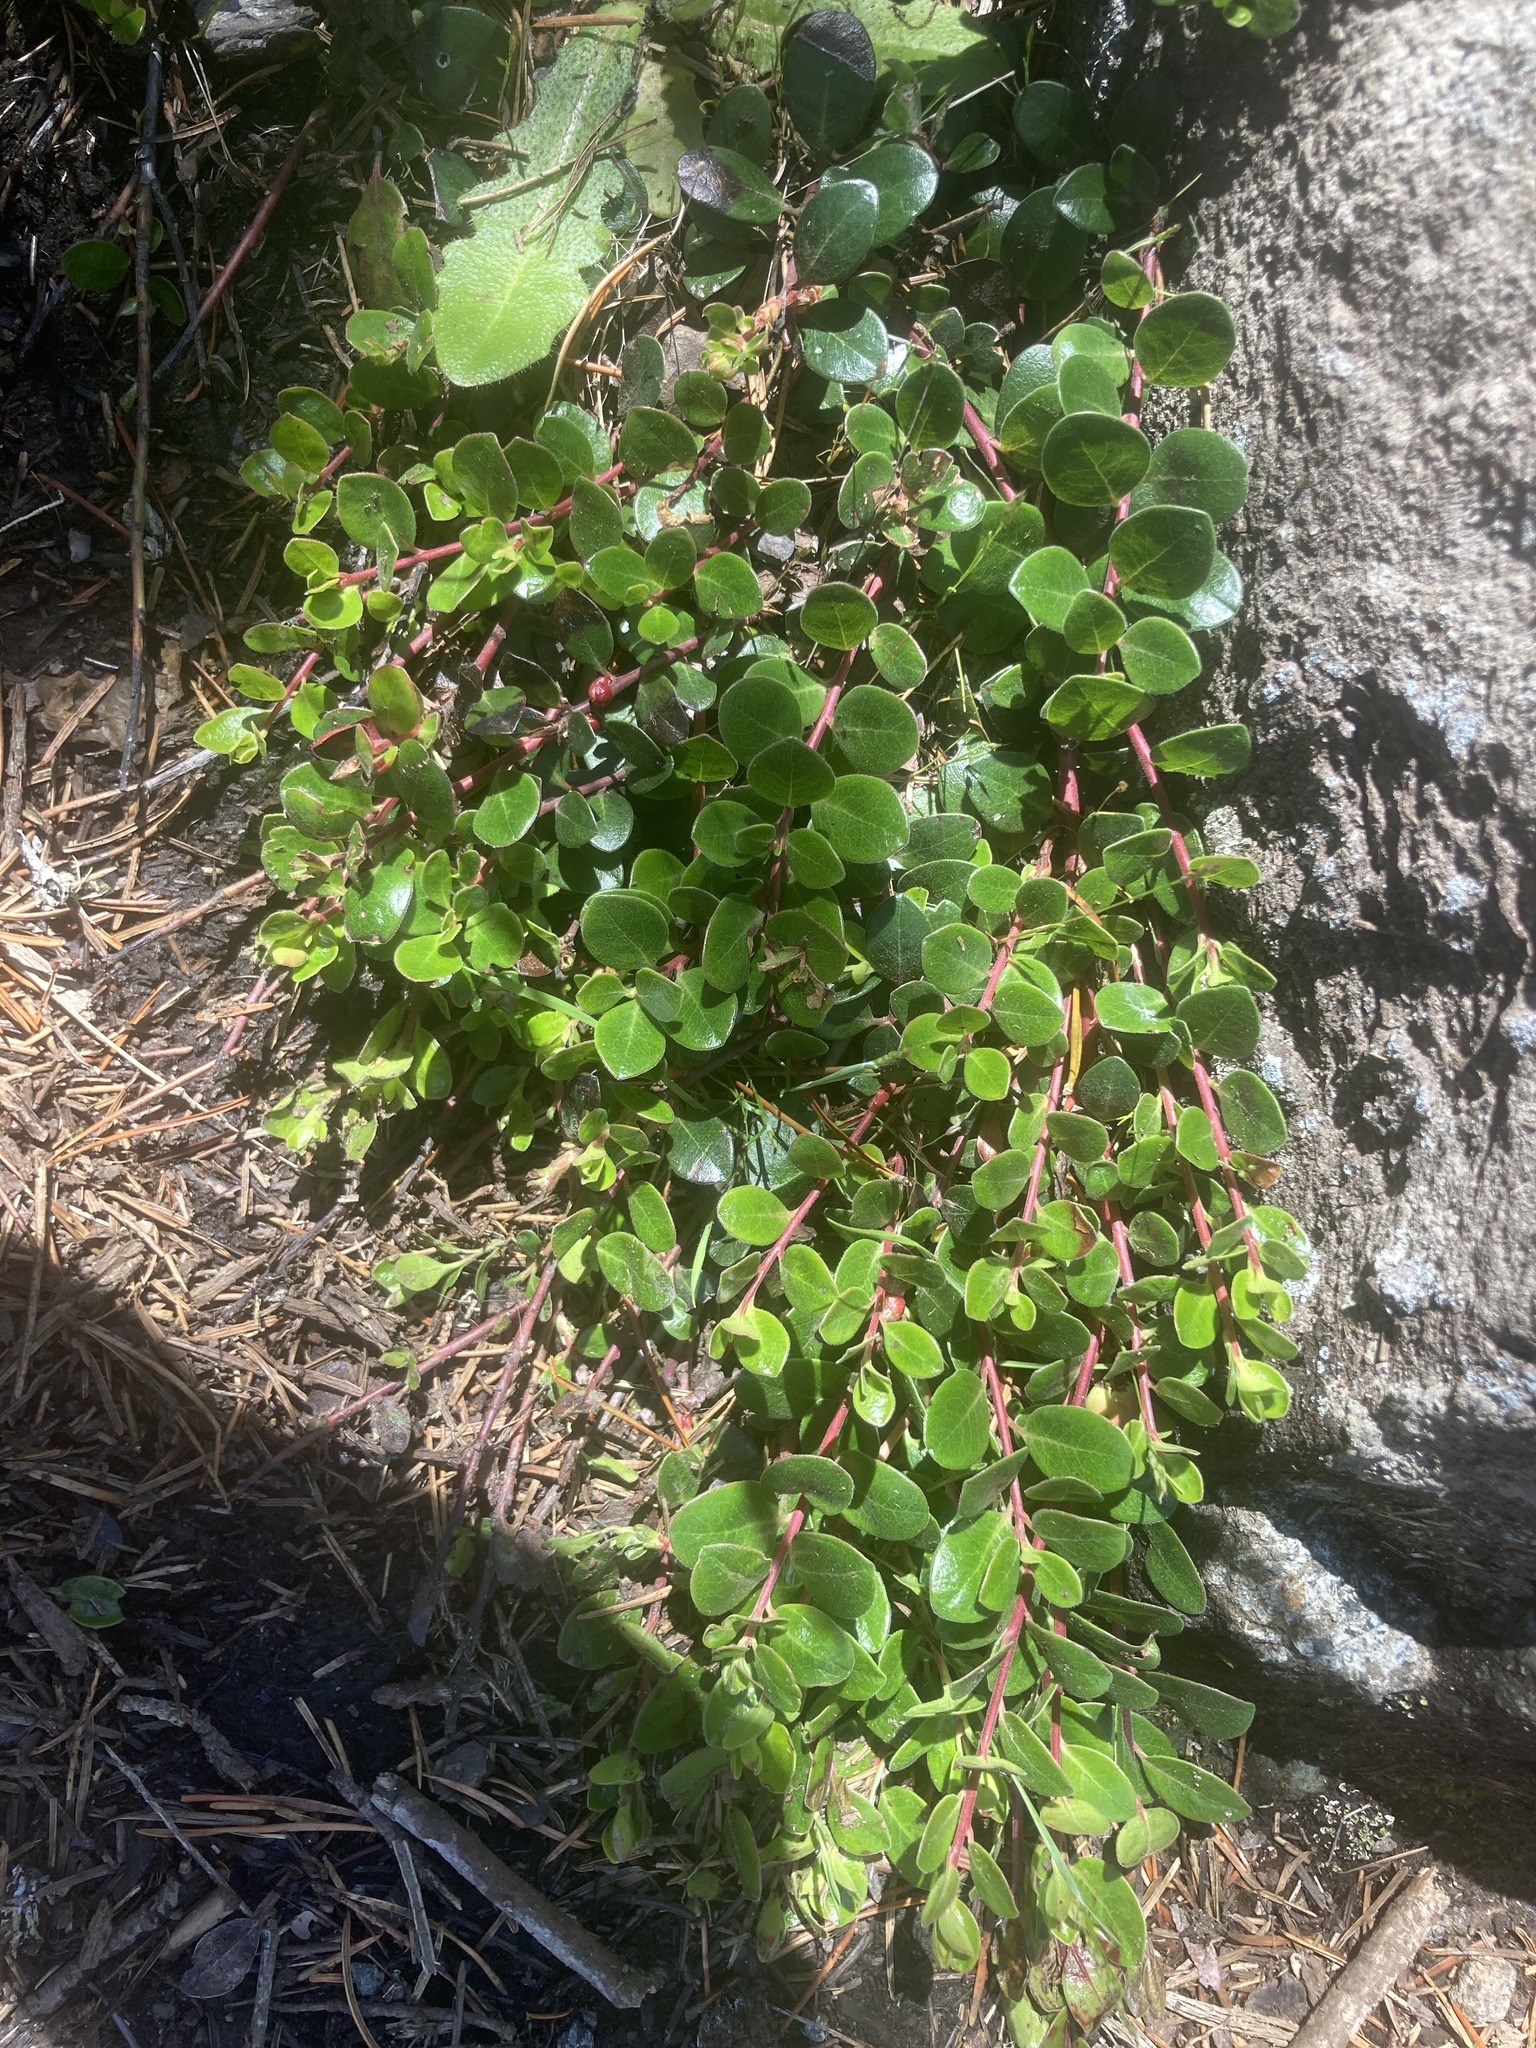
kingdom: Plantae
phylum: Tracheophyta
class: Magnoliopsida
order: Ericales
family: Ericaceae
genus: Arctostaphylos
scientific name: Arctostaphylos uva-ursi
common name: Bearberry
